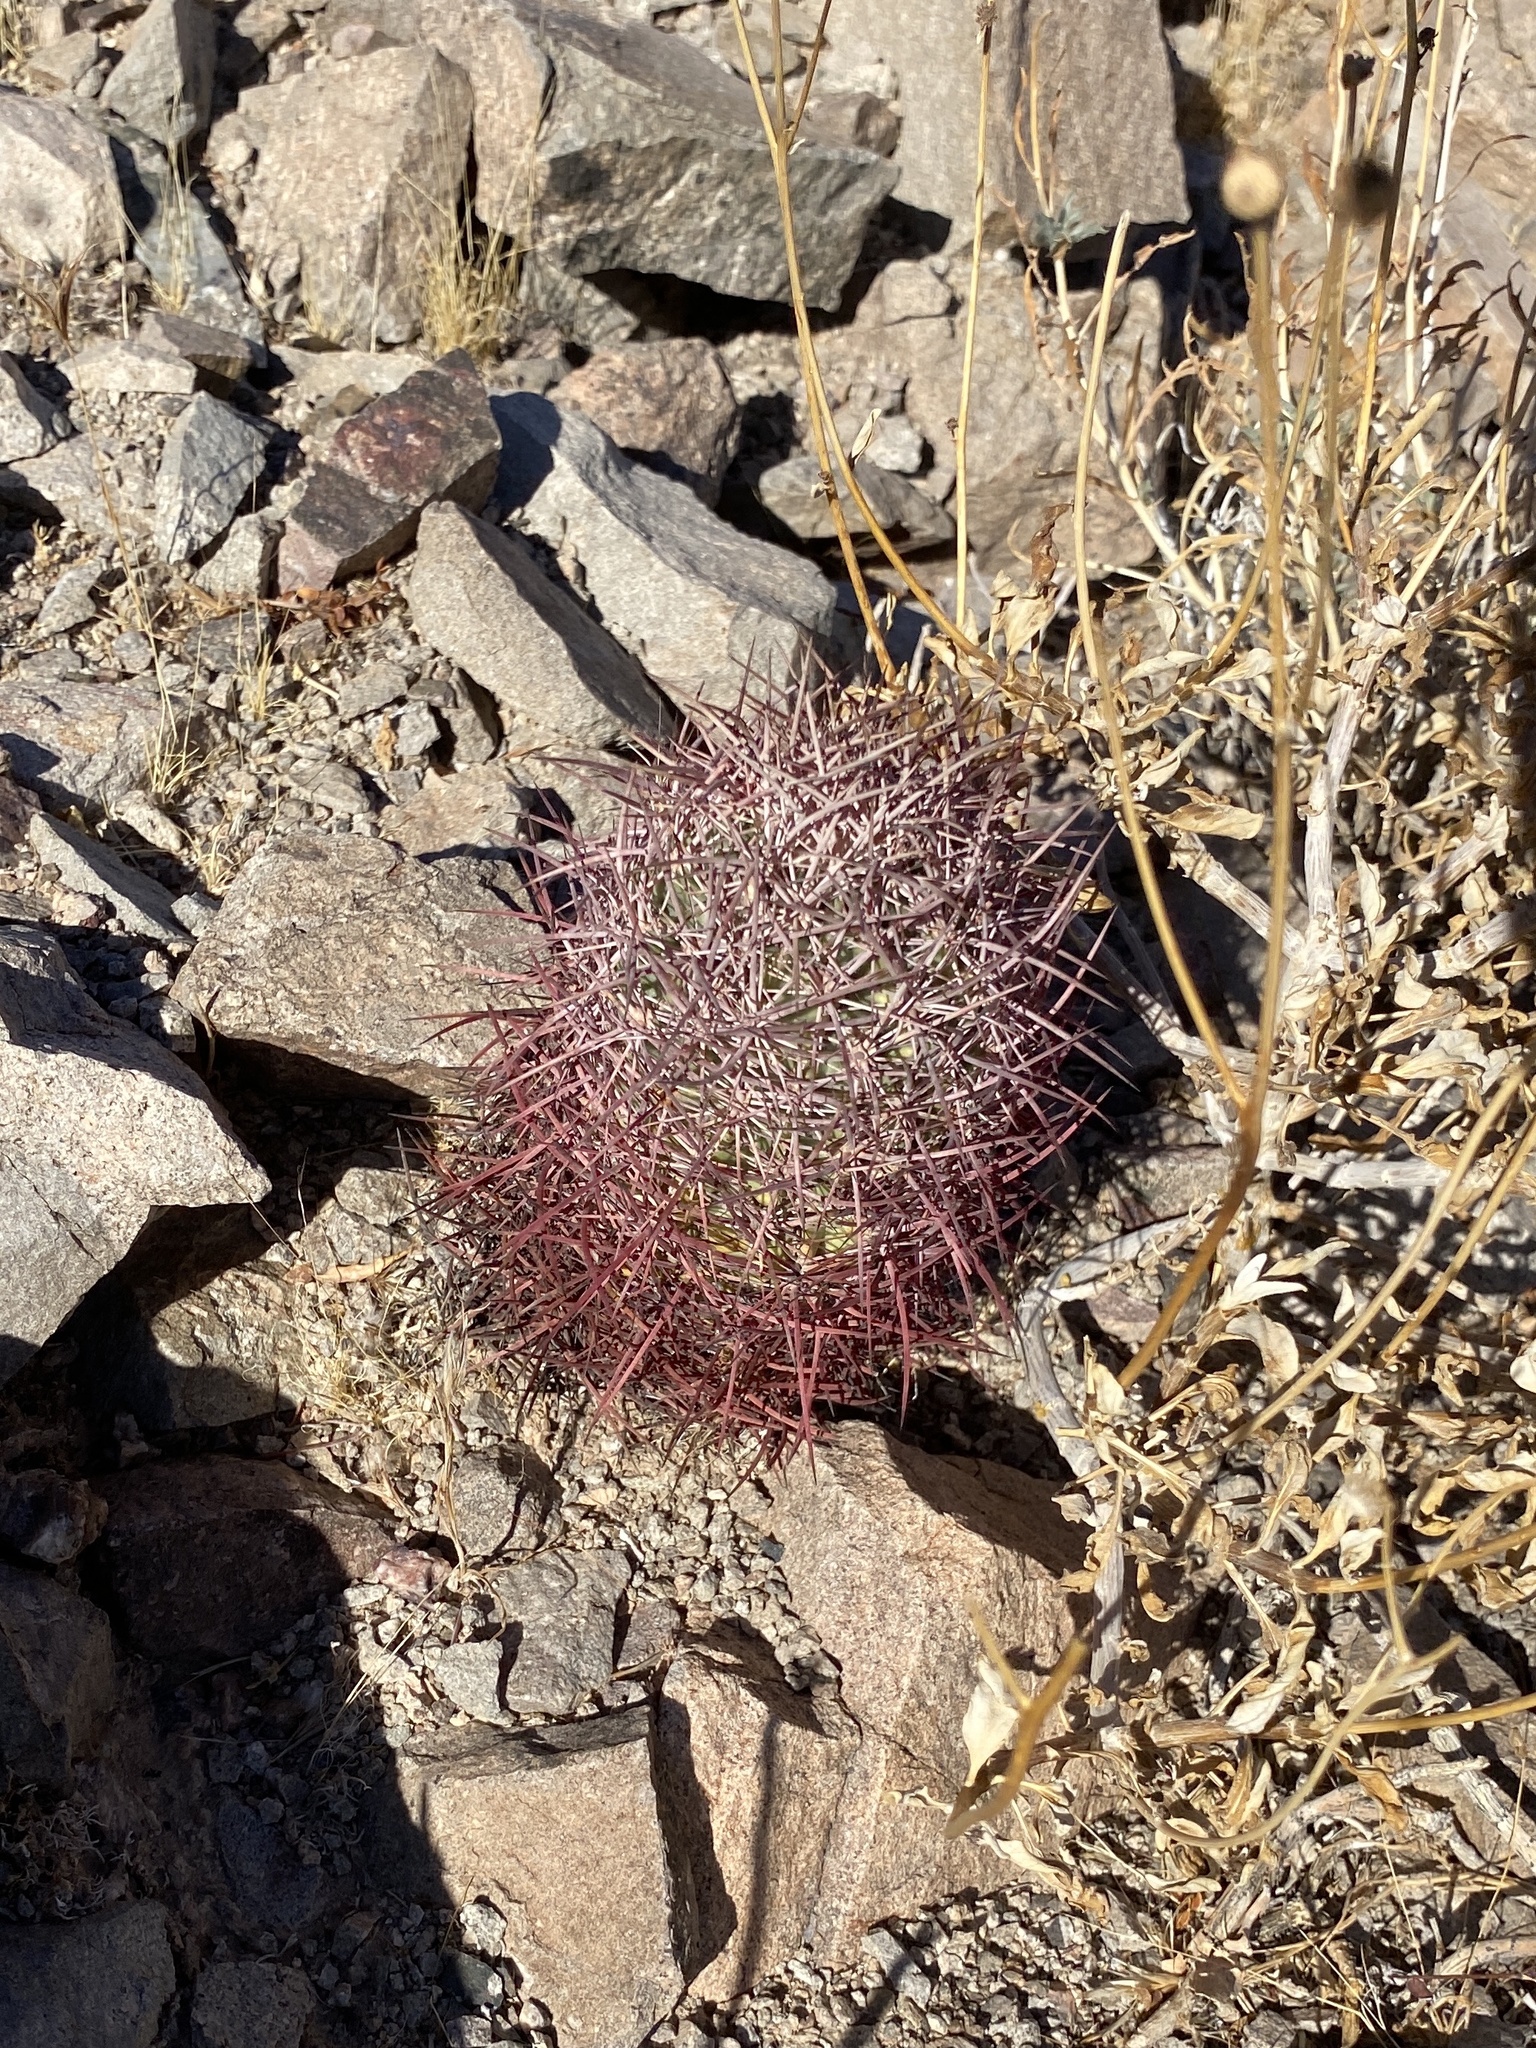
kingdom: Plantae
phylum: Tracheophyta
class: Magnoliopsida
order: Caryophyllales
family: Cactaceae
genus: Sclerocactus
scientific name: Sclerocactus johnsonii
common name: Eight-spine fishhook cactus
